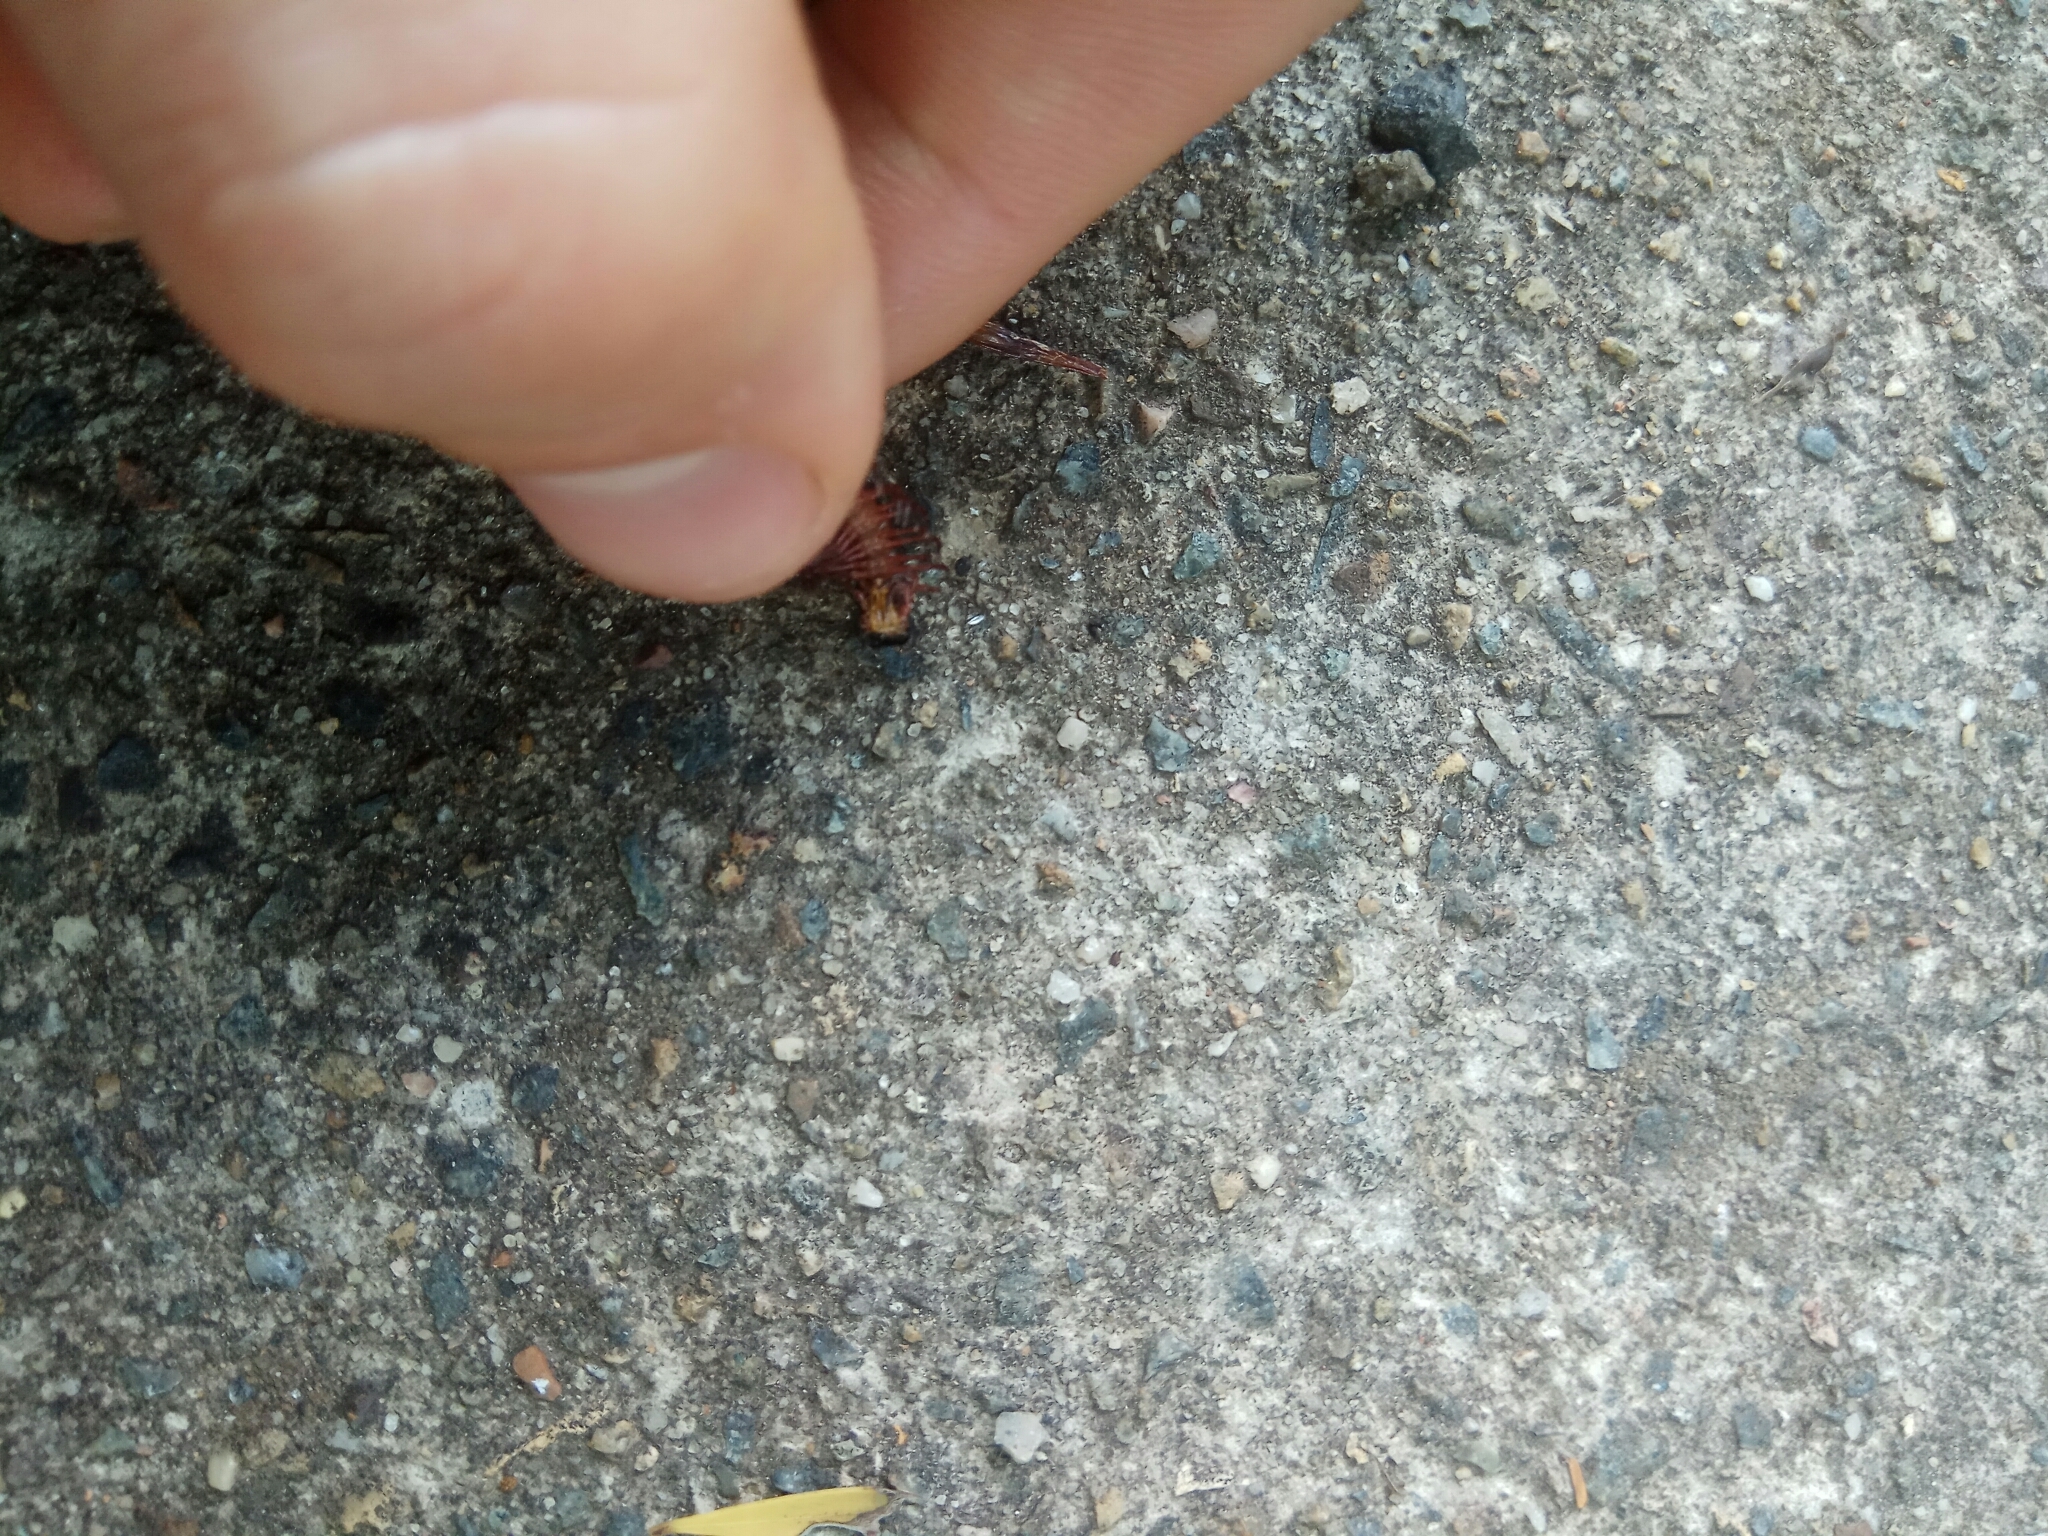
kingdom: Animalia
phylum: Arthropoda
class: Diplopoda
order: Polydesmida
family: Paradoxosomatidae
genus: Heterocladosoma
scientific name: Heterocladosoma
